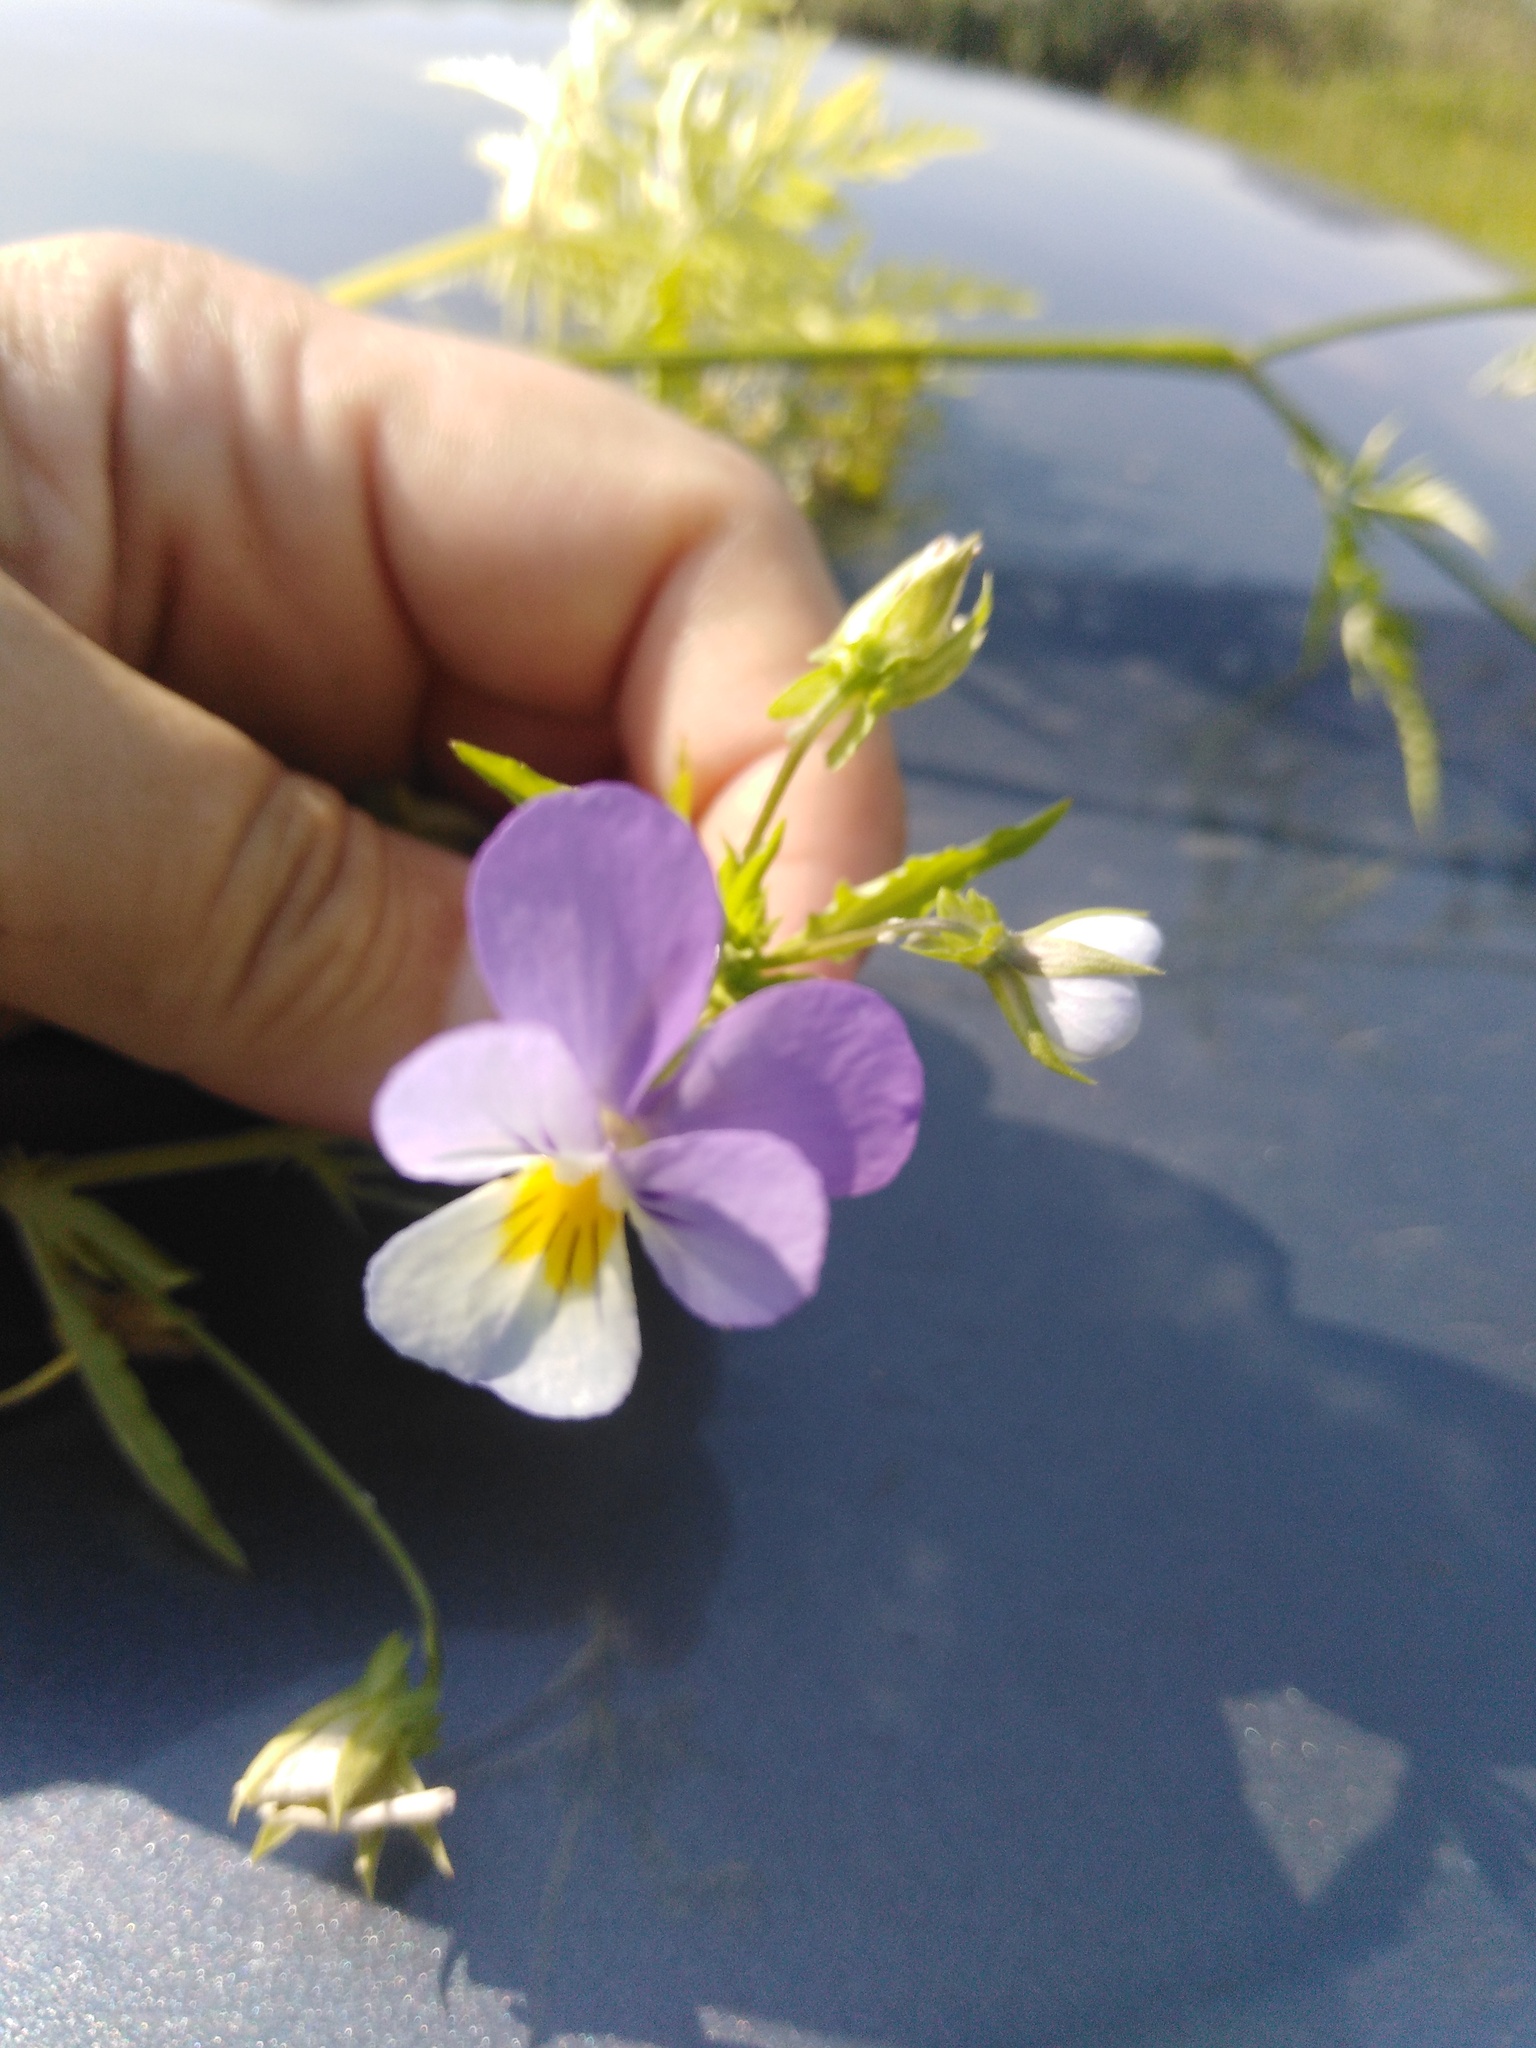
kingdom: Plantae
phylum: Tracheophyta
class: Magnoliopsida
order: Malpighiales
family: Violaceae
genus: Viola
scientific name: Viola tricolor
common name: Pansy
